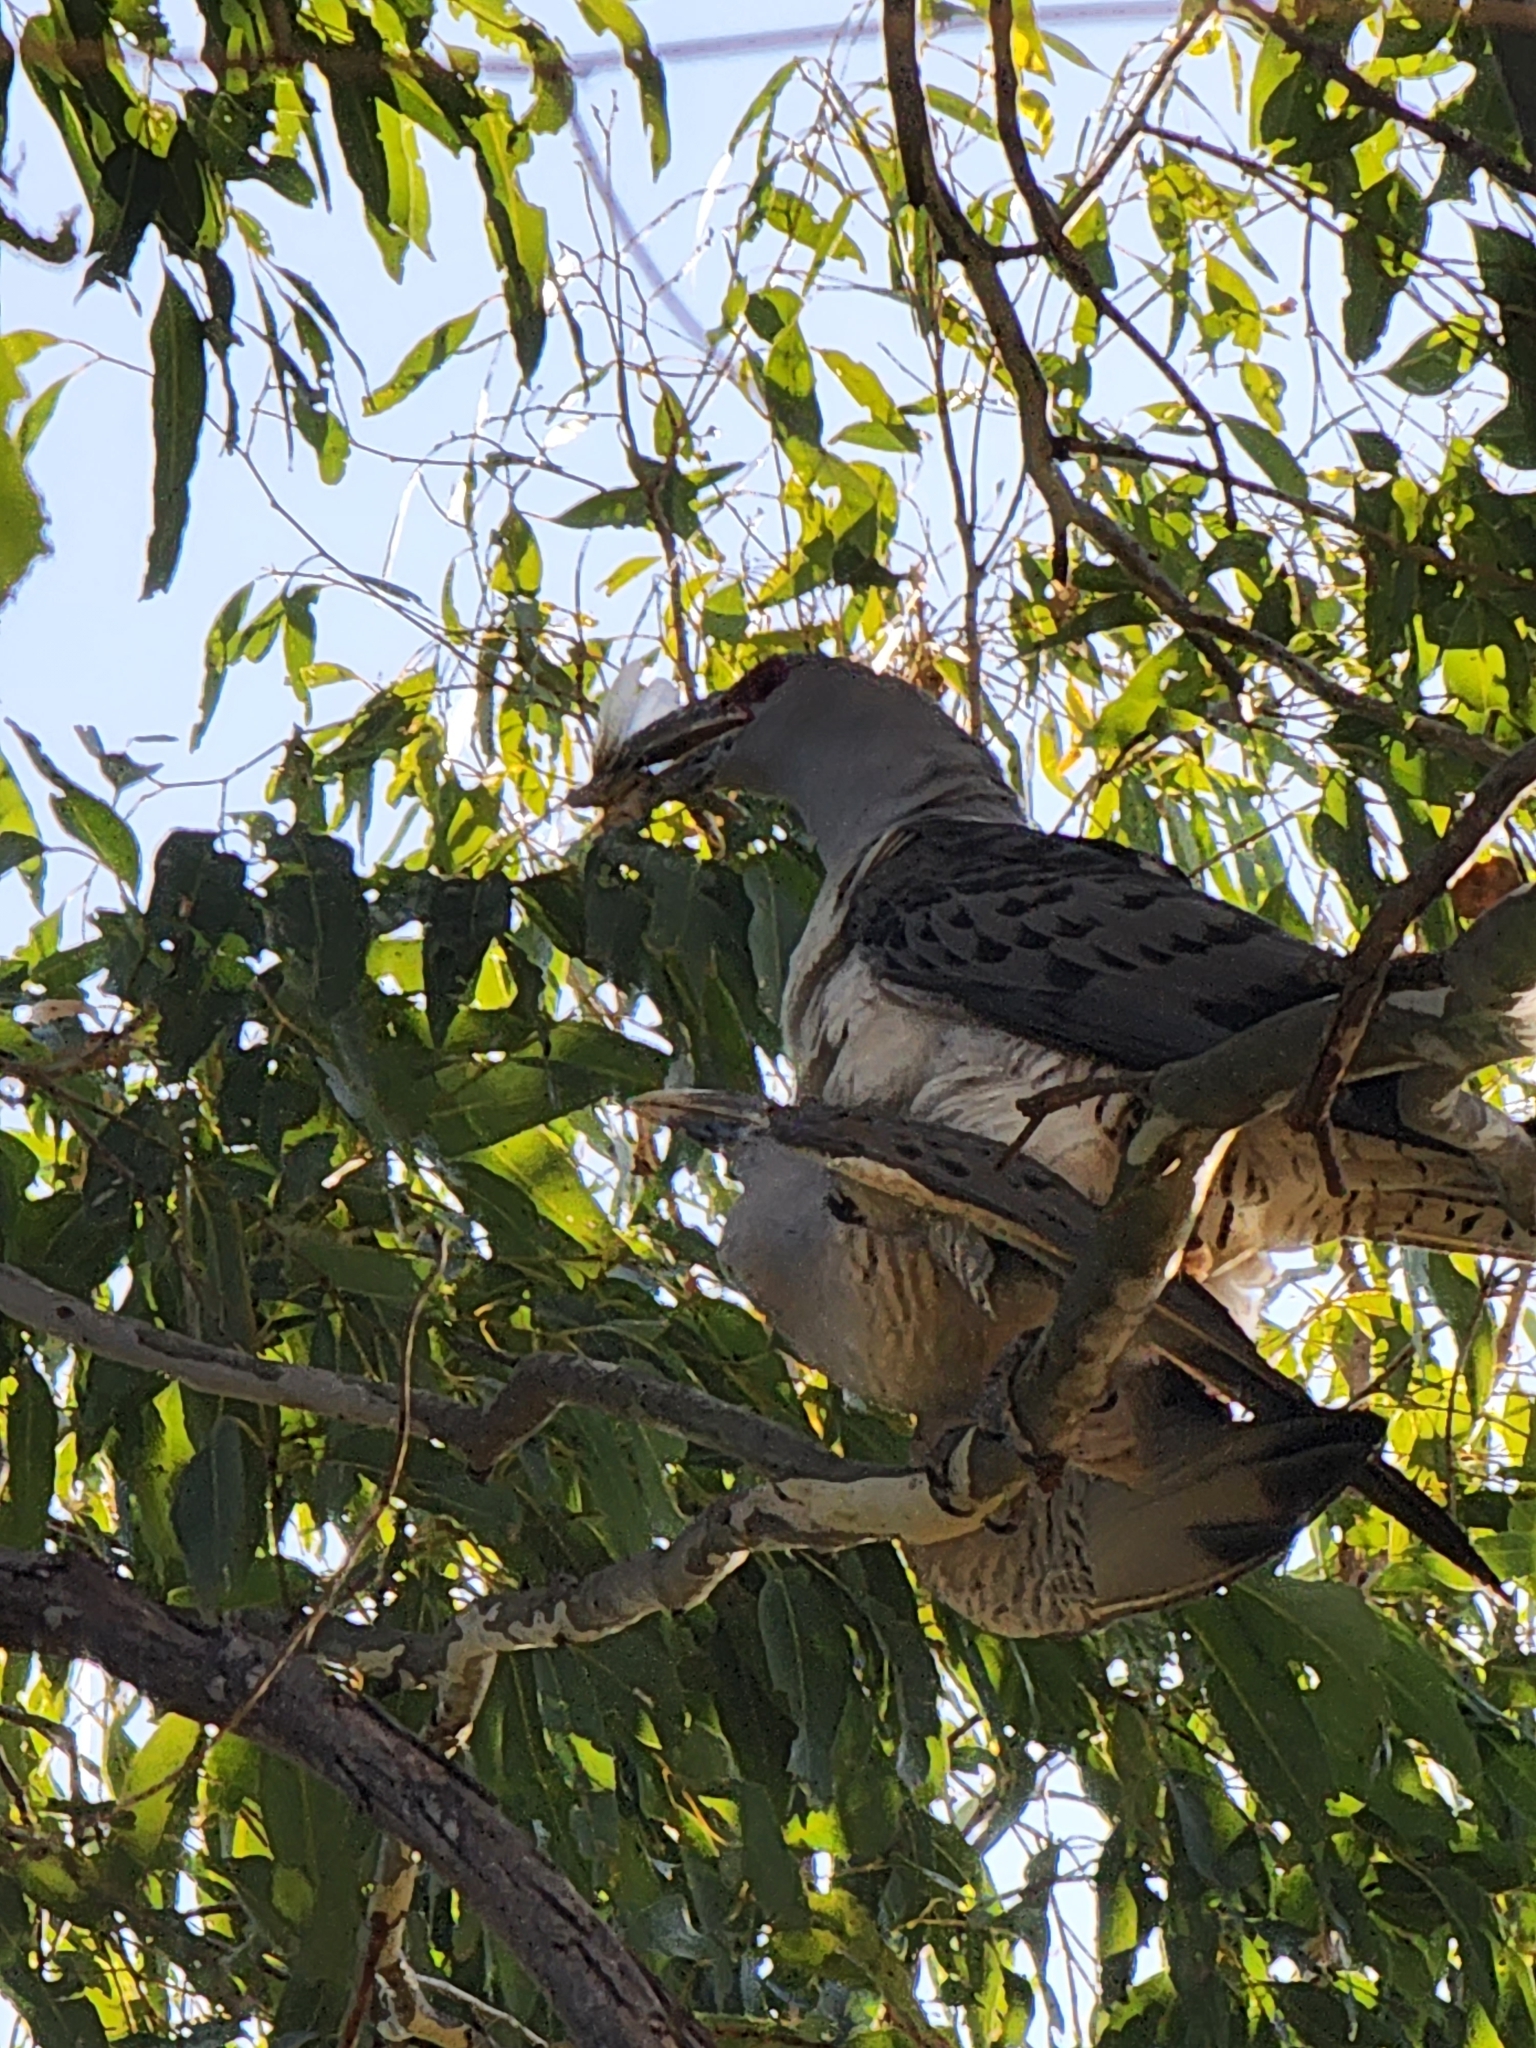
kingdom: Animalia
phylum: Chordata
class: Aves
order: Cuculiformes
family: Cuculidae
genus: Scythrops
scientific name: Scythrops novaehollandiae
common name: Channel-billed cuckoo
